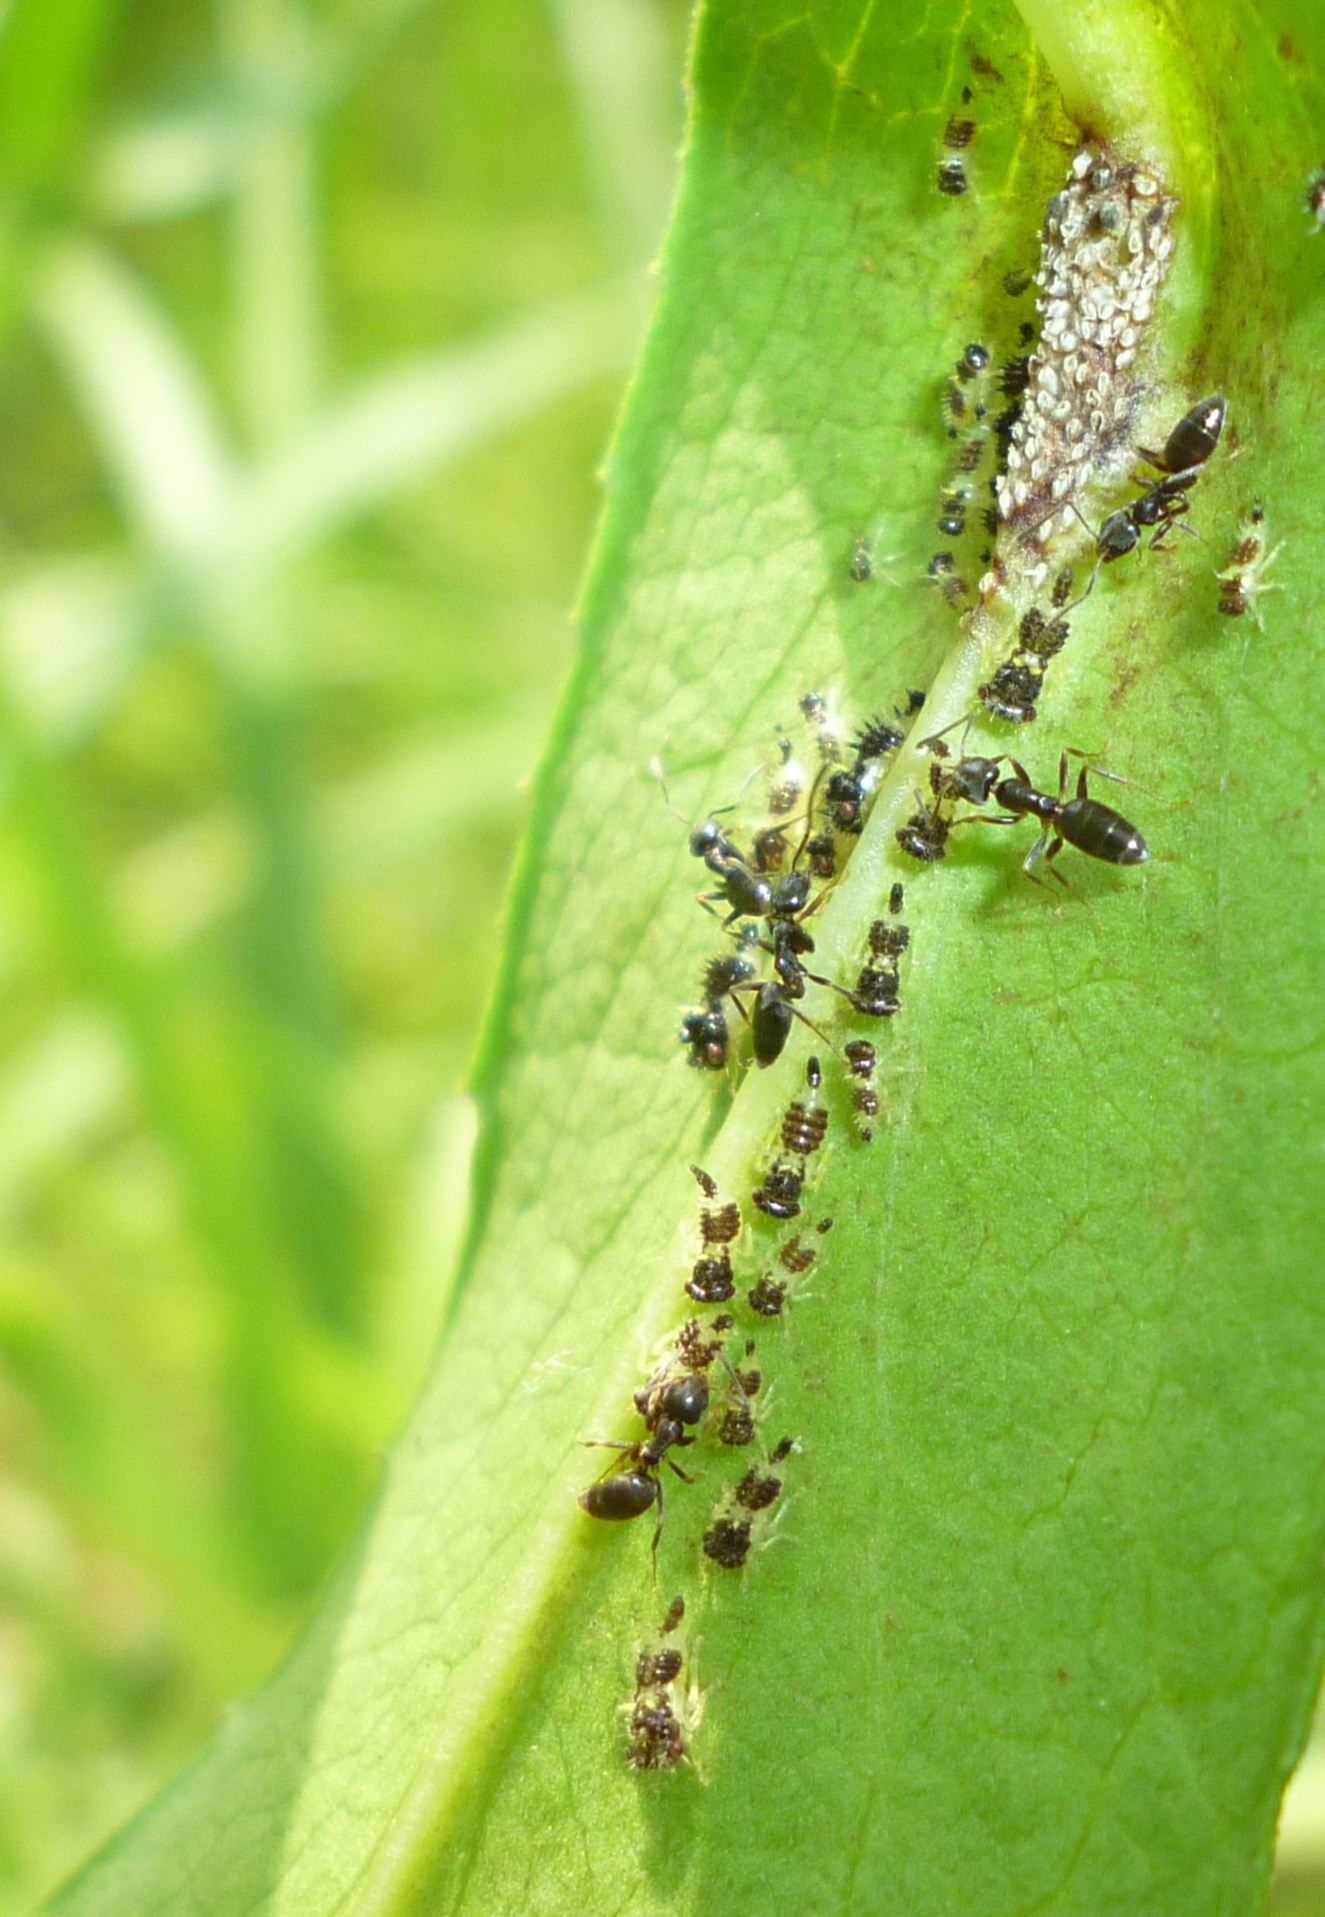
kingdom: Animalia
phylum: Arthropoda
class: Insecta
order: Hymenoptera
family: Formicidae
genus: Tapinoma
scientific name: Tapinoma sessile
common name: Odorous house ant
